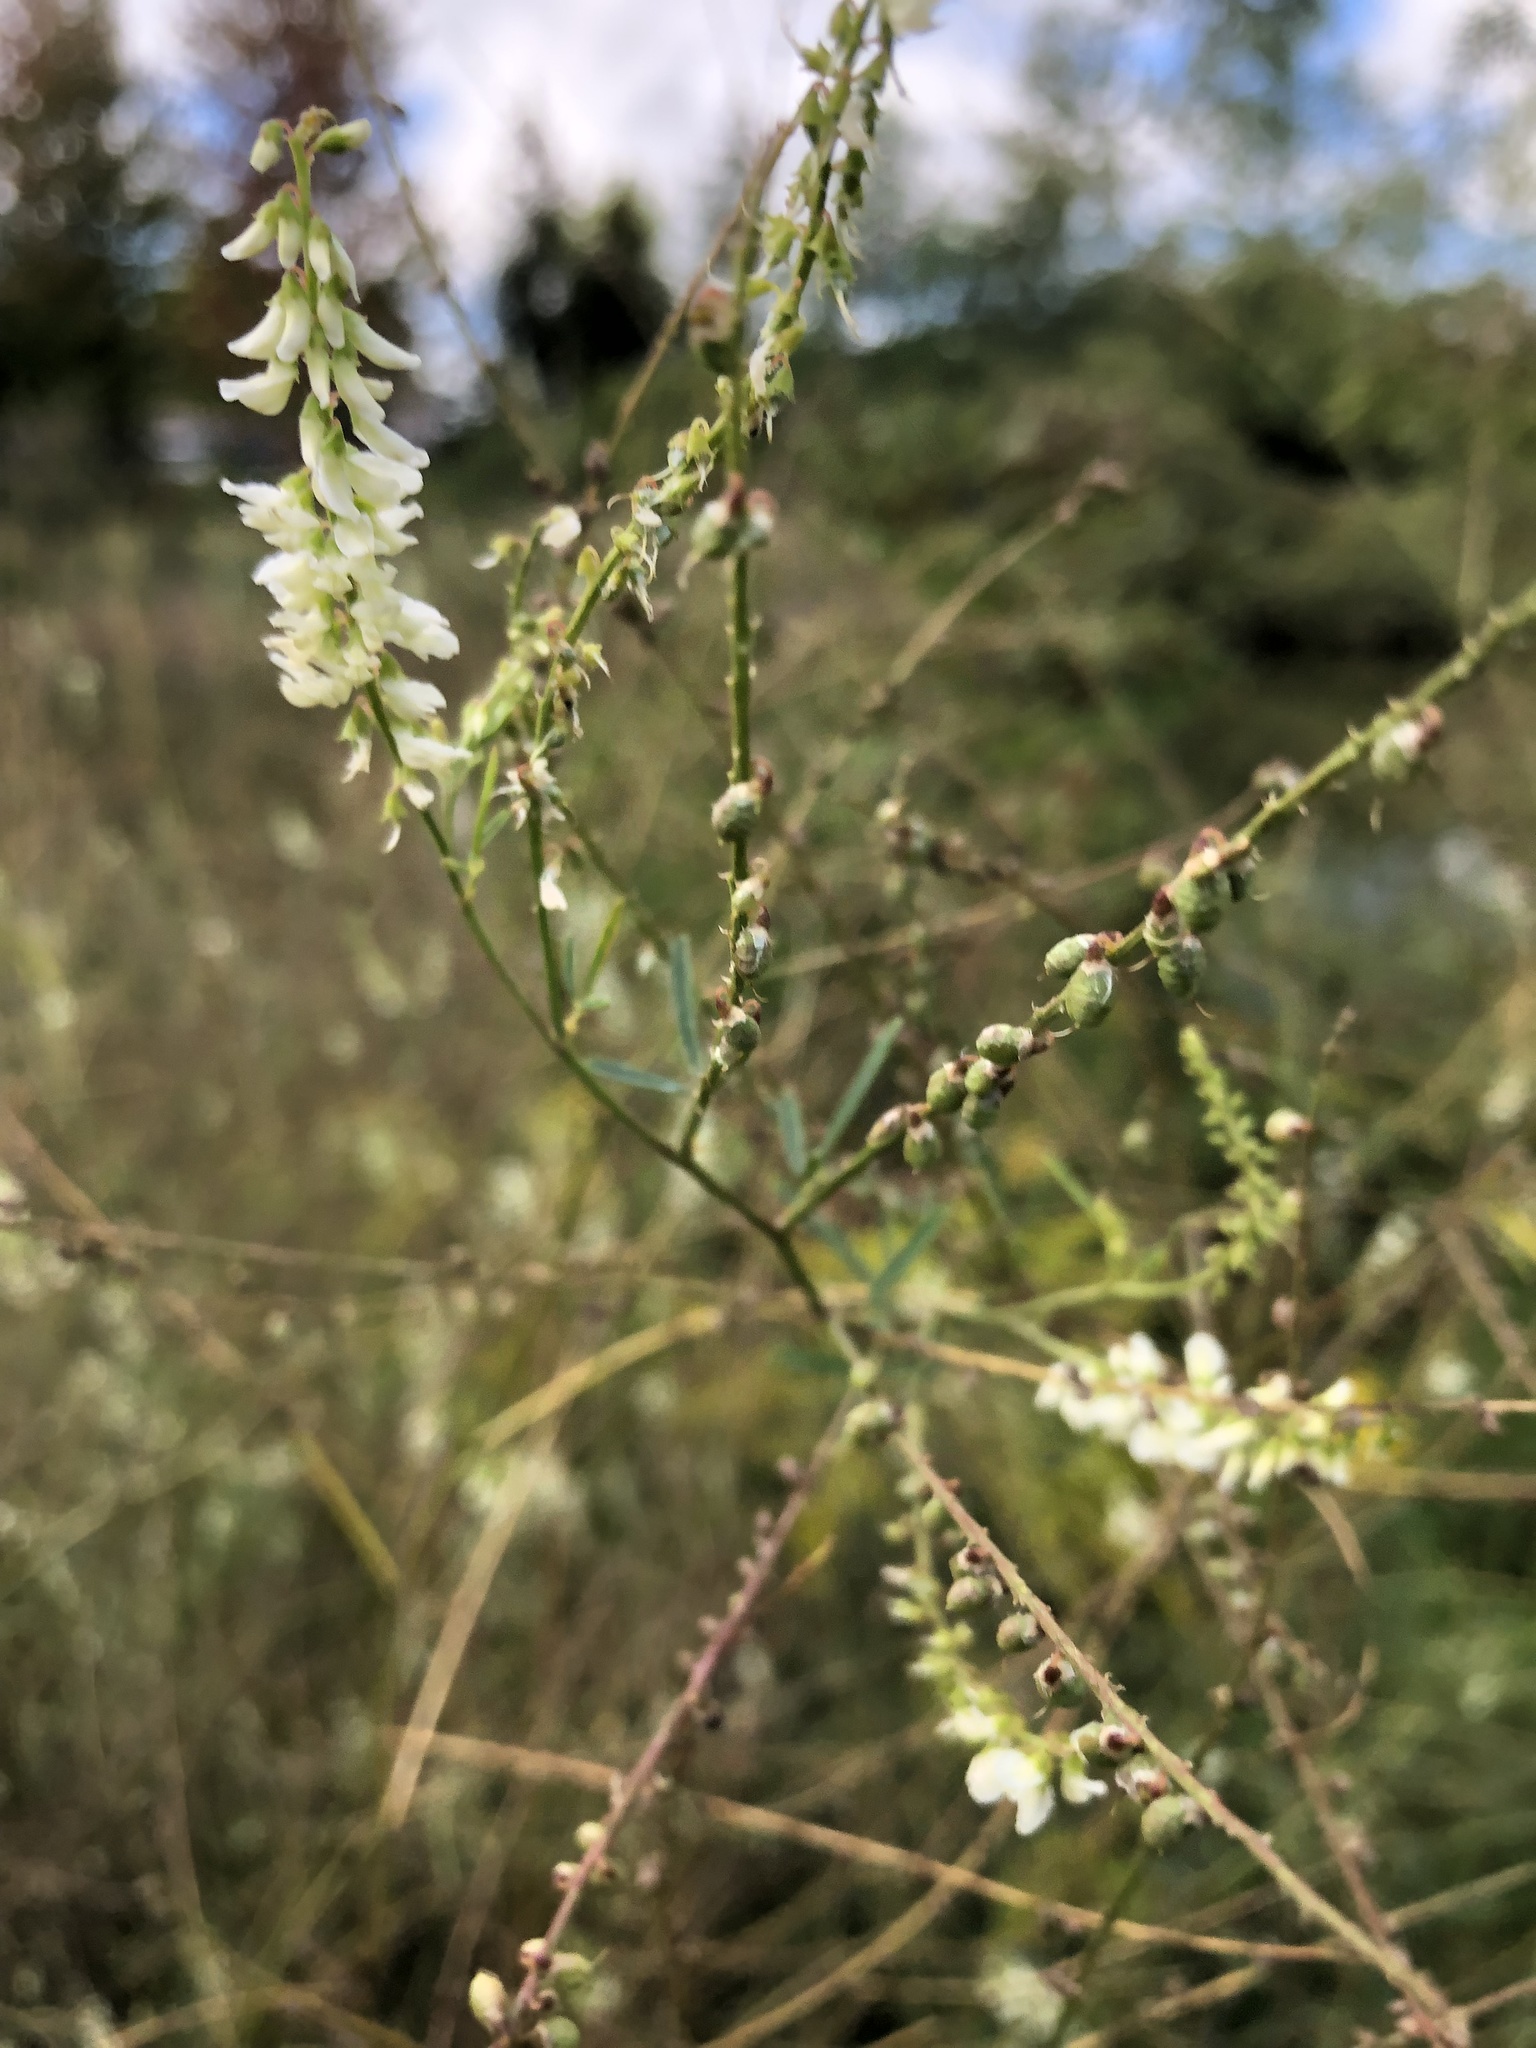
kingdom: Plantae
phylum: Tracheophyta
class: Magnoliopsida
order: Fabales
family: Fabaceae
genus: Melilotus
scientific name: Melilotus albus
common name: White melilot
